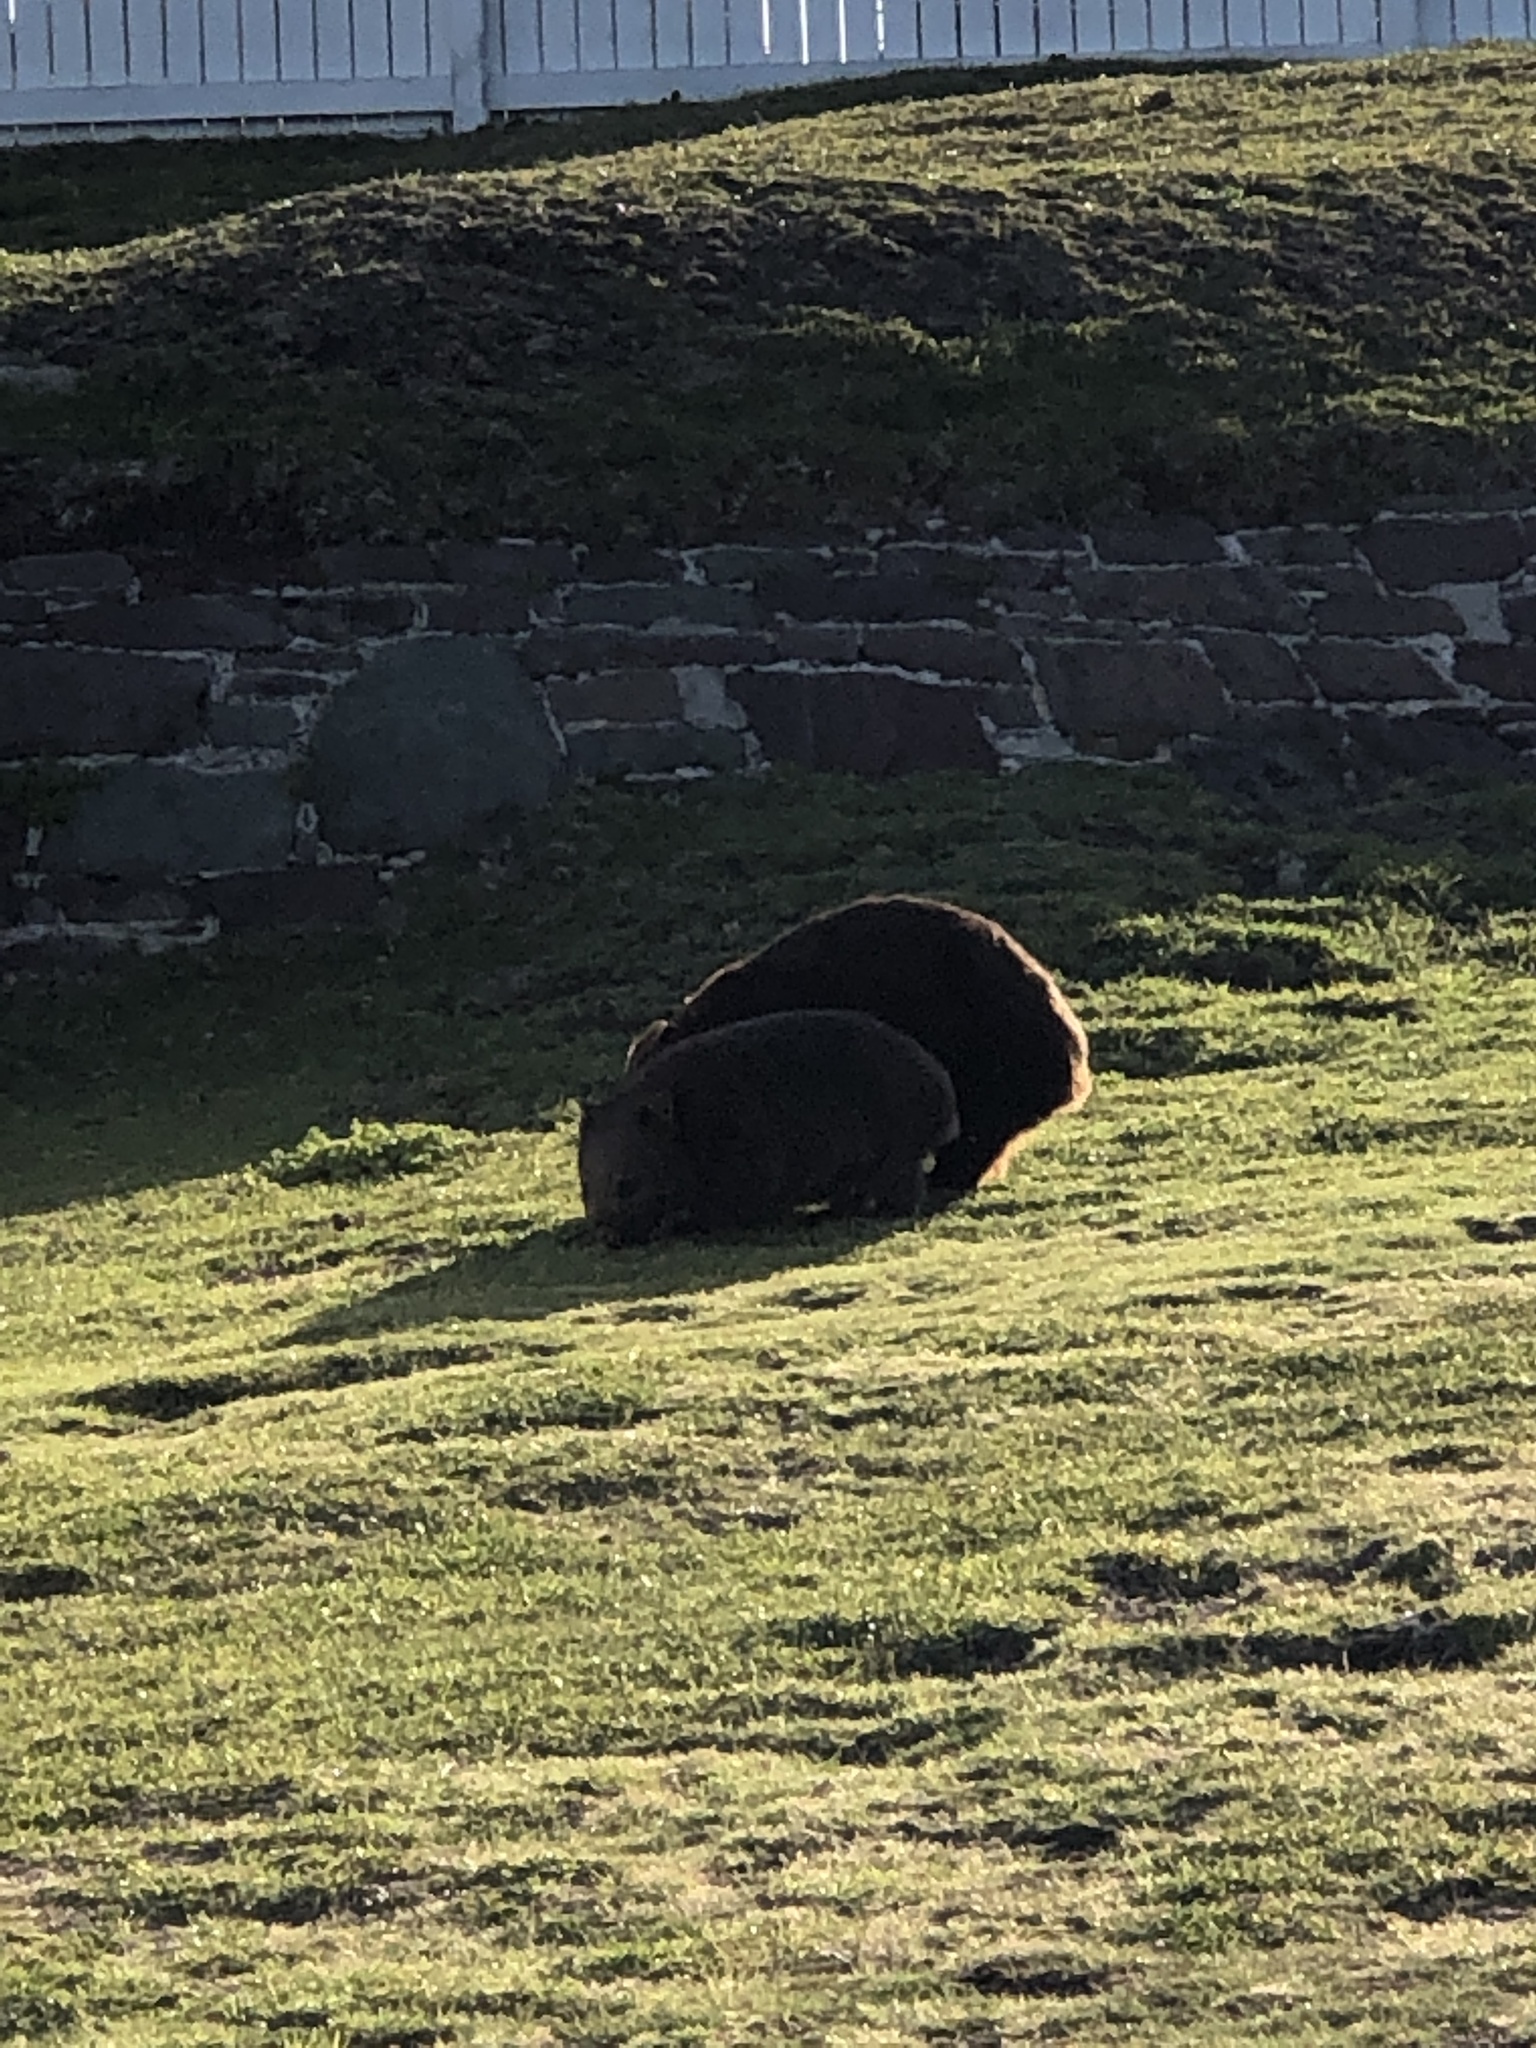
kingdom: Animalia
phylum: Chordata
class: Mammalia
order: Diprotodontia
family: Vombatidae
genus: Vombatus
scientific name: Vombatus ursinus
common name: Common wombat
